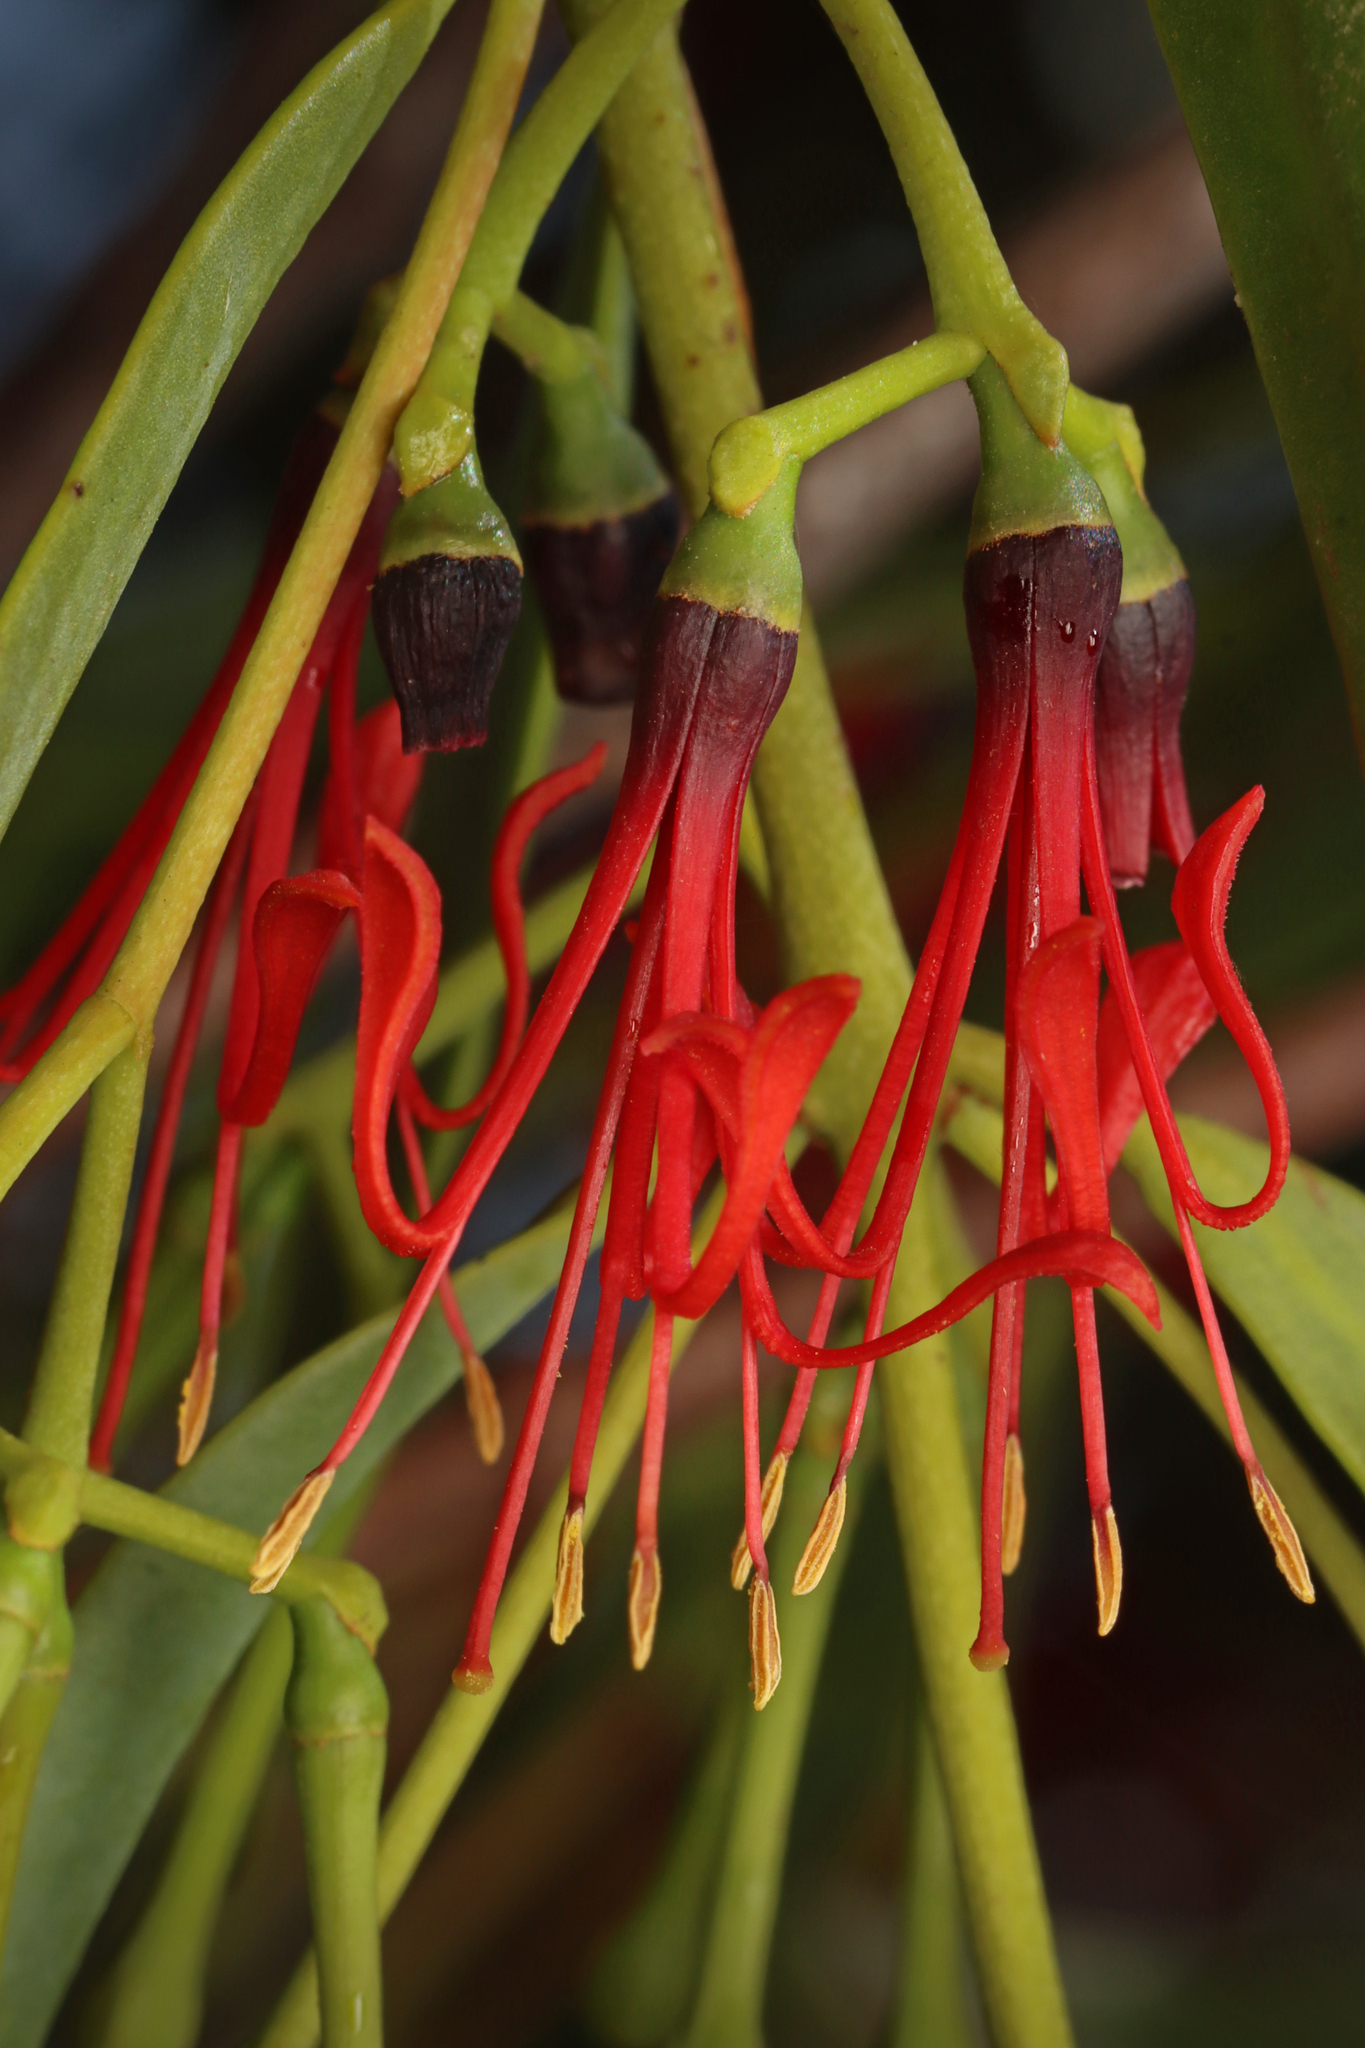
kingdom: Plantae
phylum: Tracheophyta
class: Magnoliopsida
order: Santalales
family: Loranthaceae
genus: Amyema
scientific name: Amyema miraculosa
